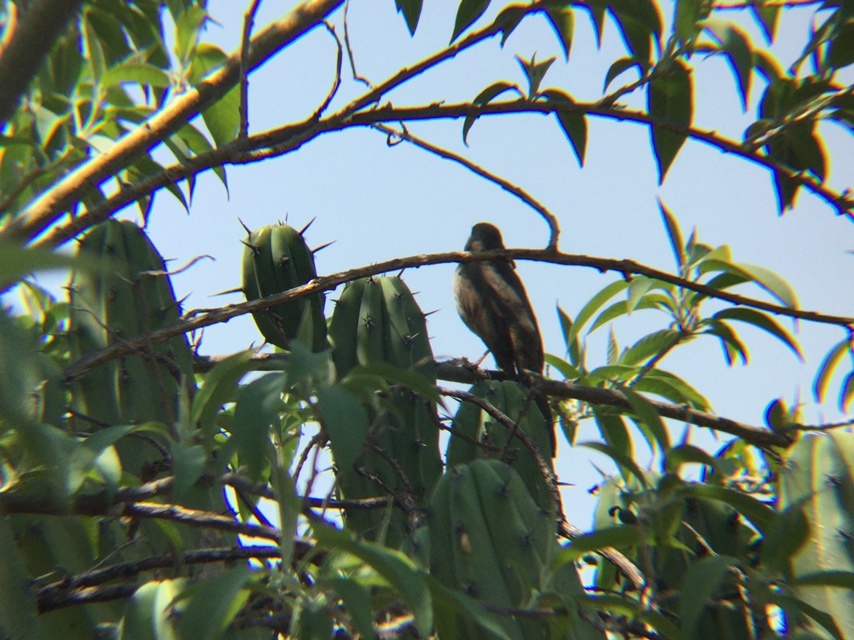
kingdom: Animalia
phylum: Chordata
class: Aves
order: Passeriformes
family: Fringillidae
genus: Haemorhous
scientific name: Haemorhous mexicanus
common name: House finch
